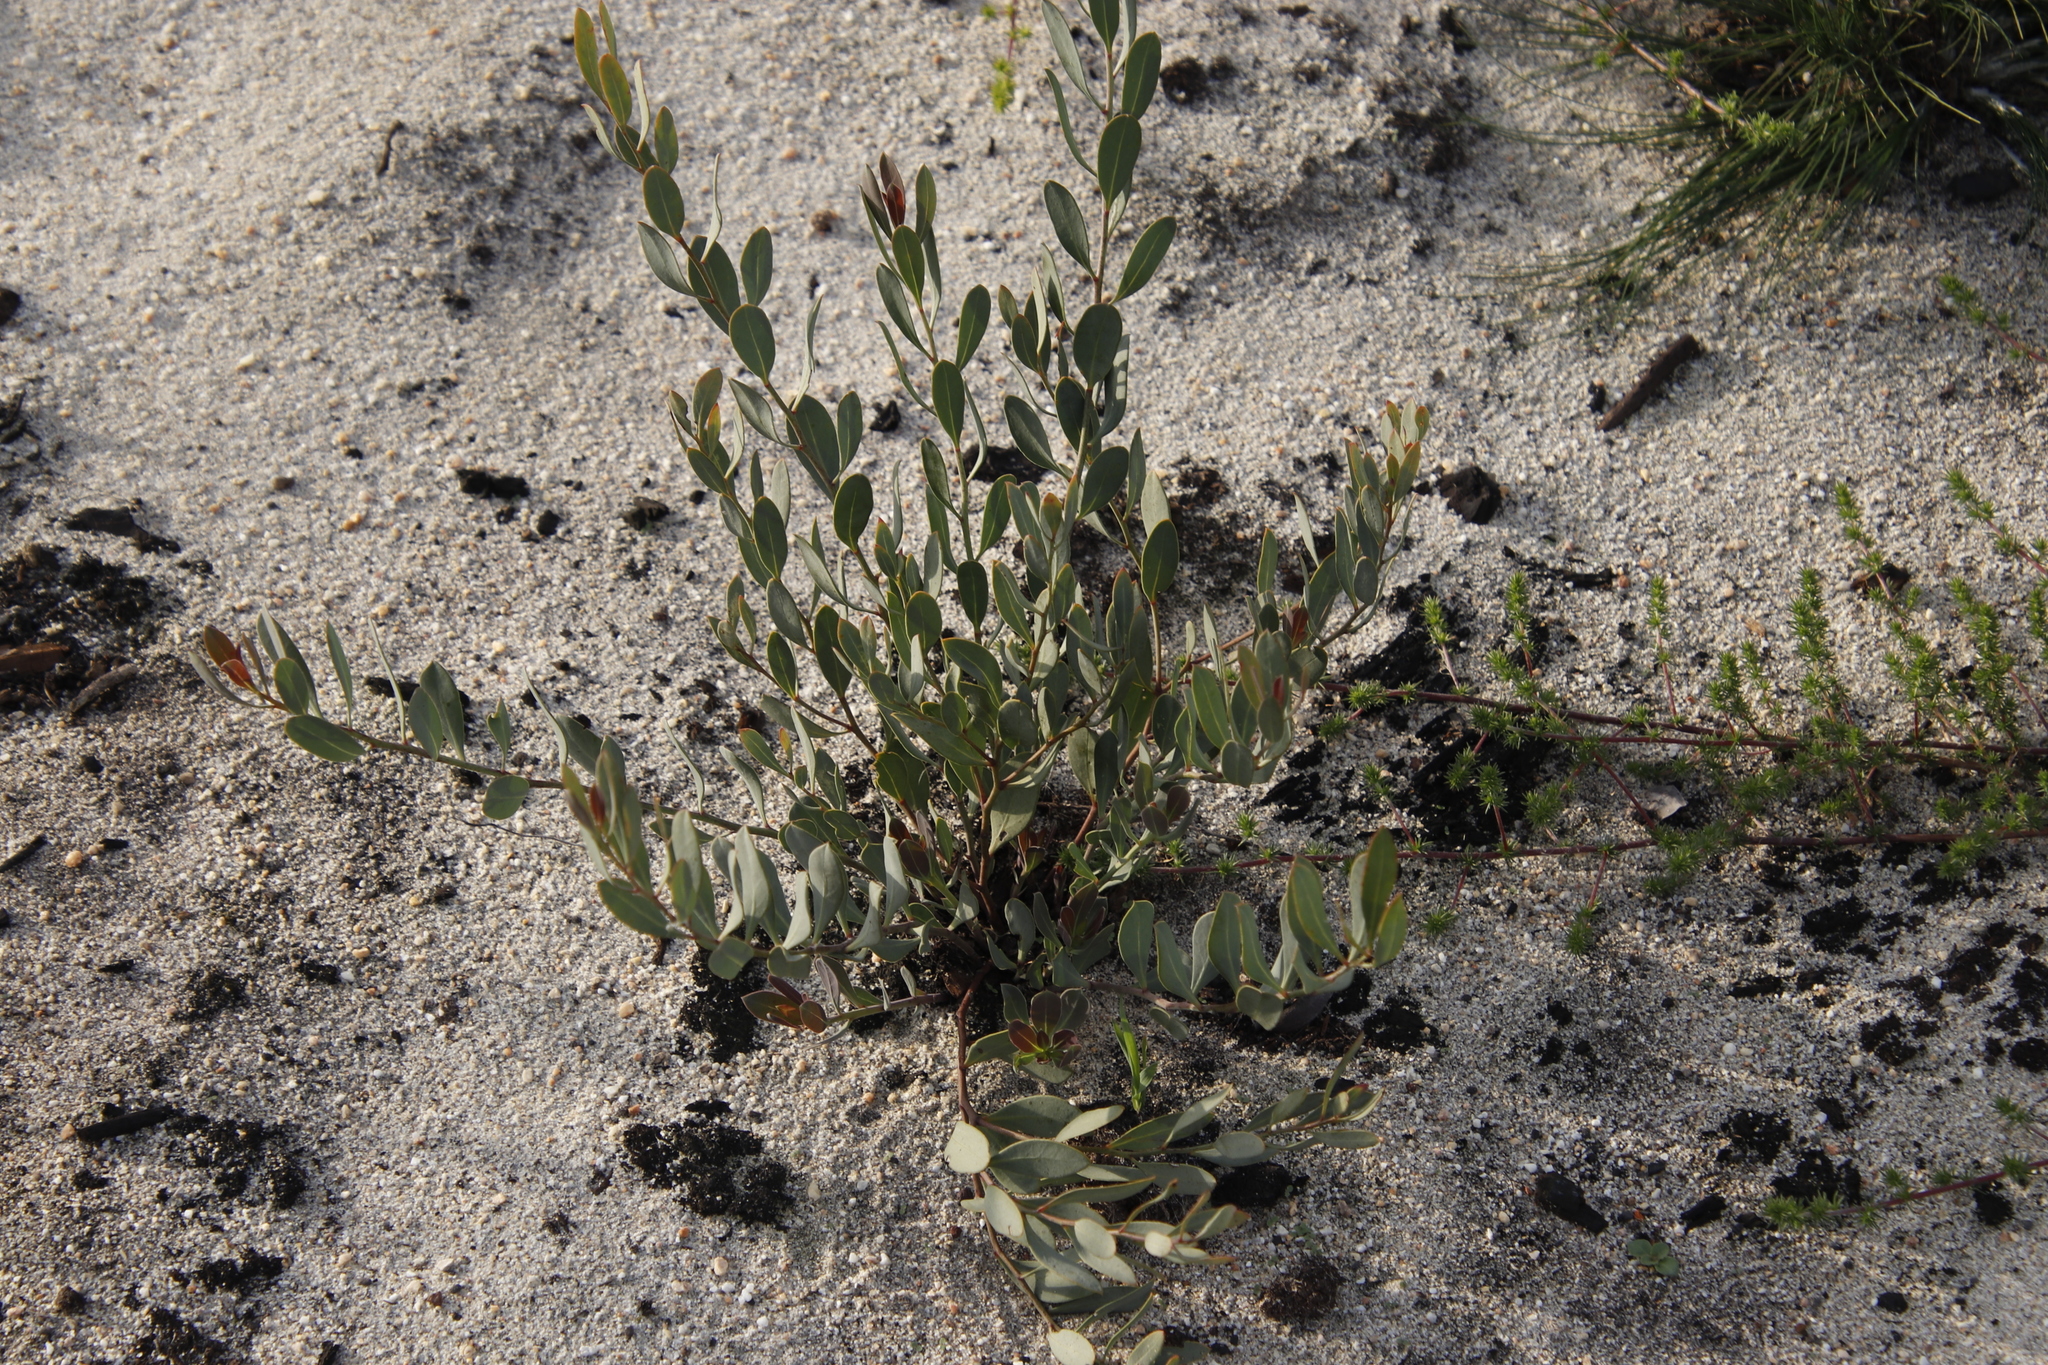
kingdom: Plantae
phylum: Tracheophyta
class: Magnoliopsida
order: Fabales
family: Fabaceae
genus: Rafnia
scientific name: Rafnia angulata
